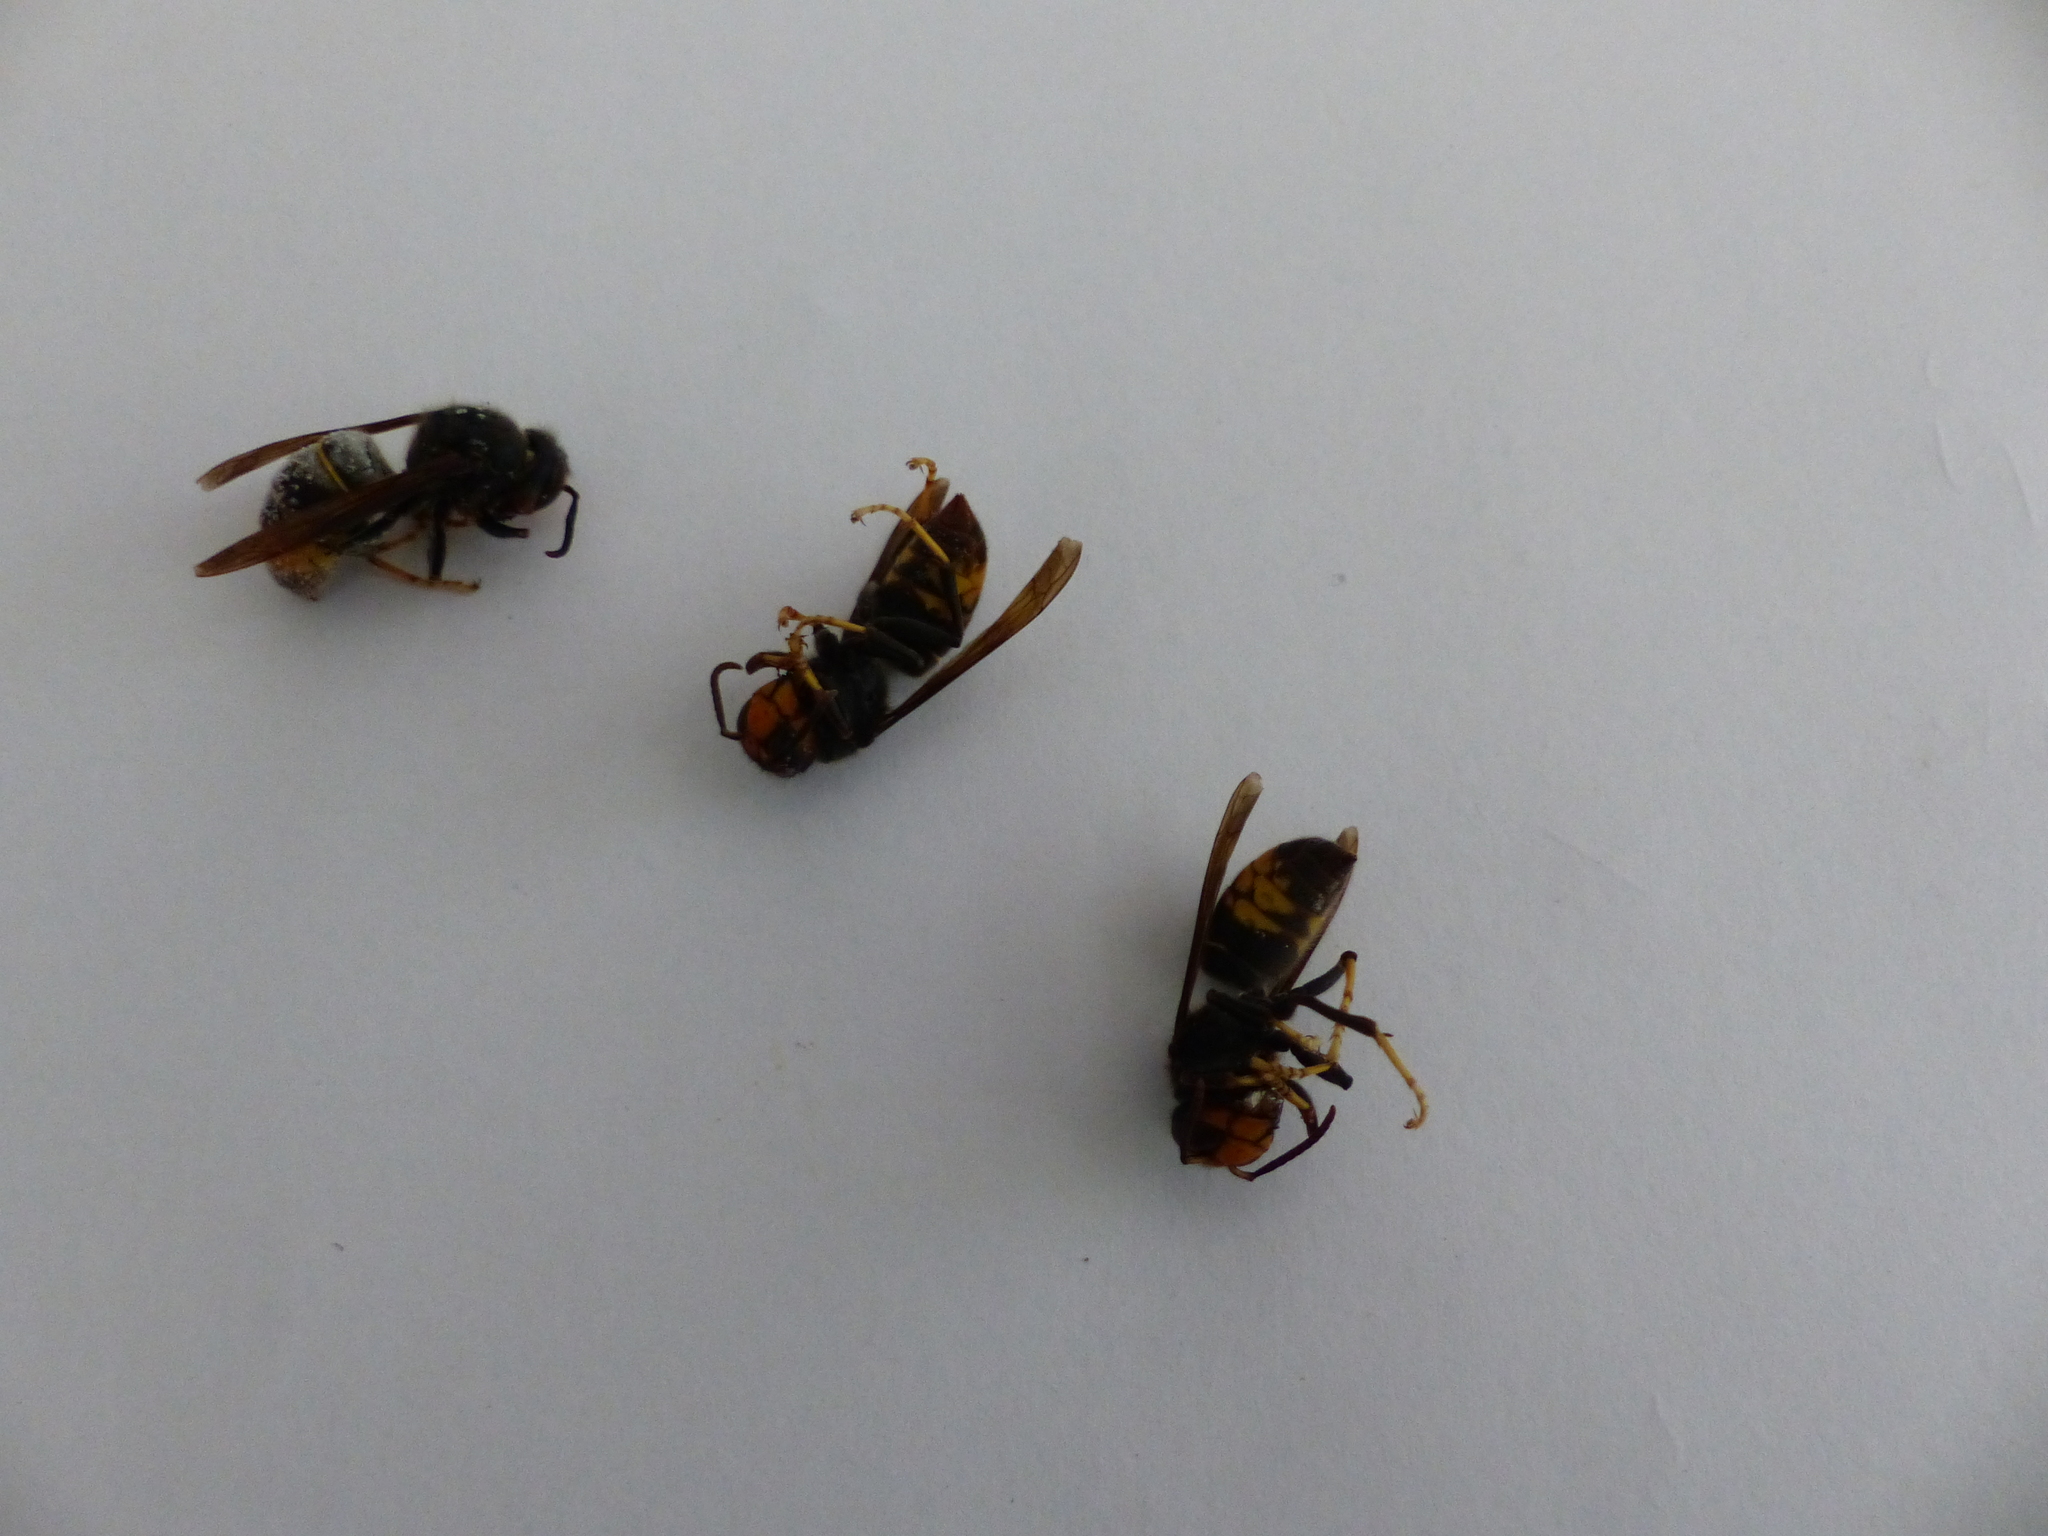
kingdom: Animalia
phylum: Arthropoda
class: Insecta
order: Hymenoptera
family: Vespidae
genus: Vespa
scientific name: Vespa velutina
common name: Asian hornet
